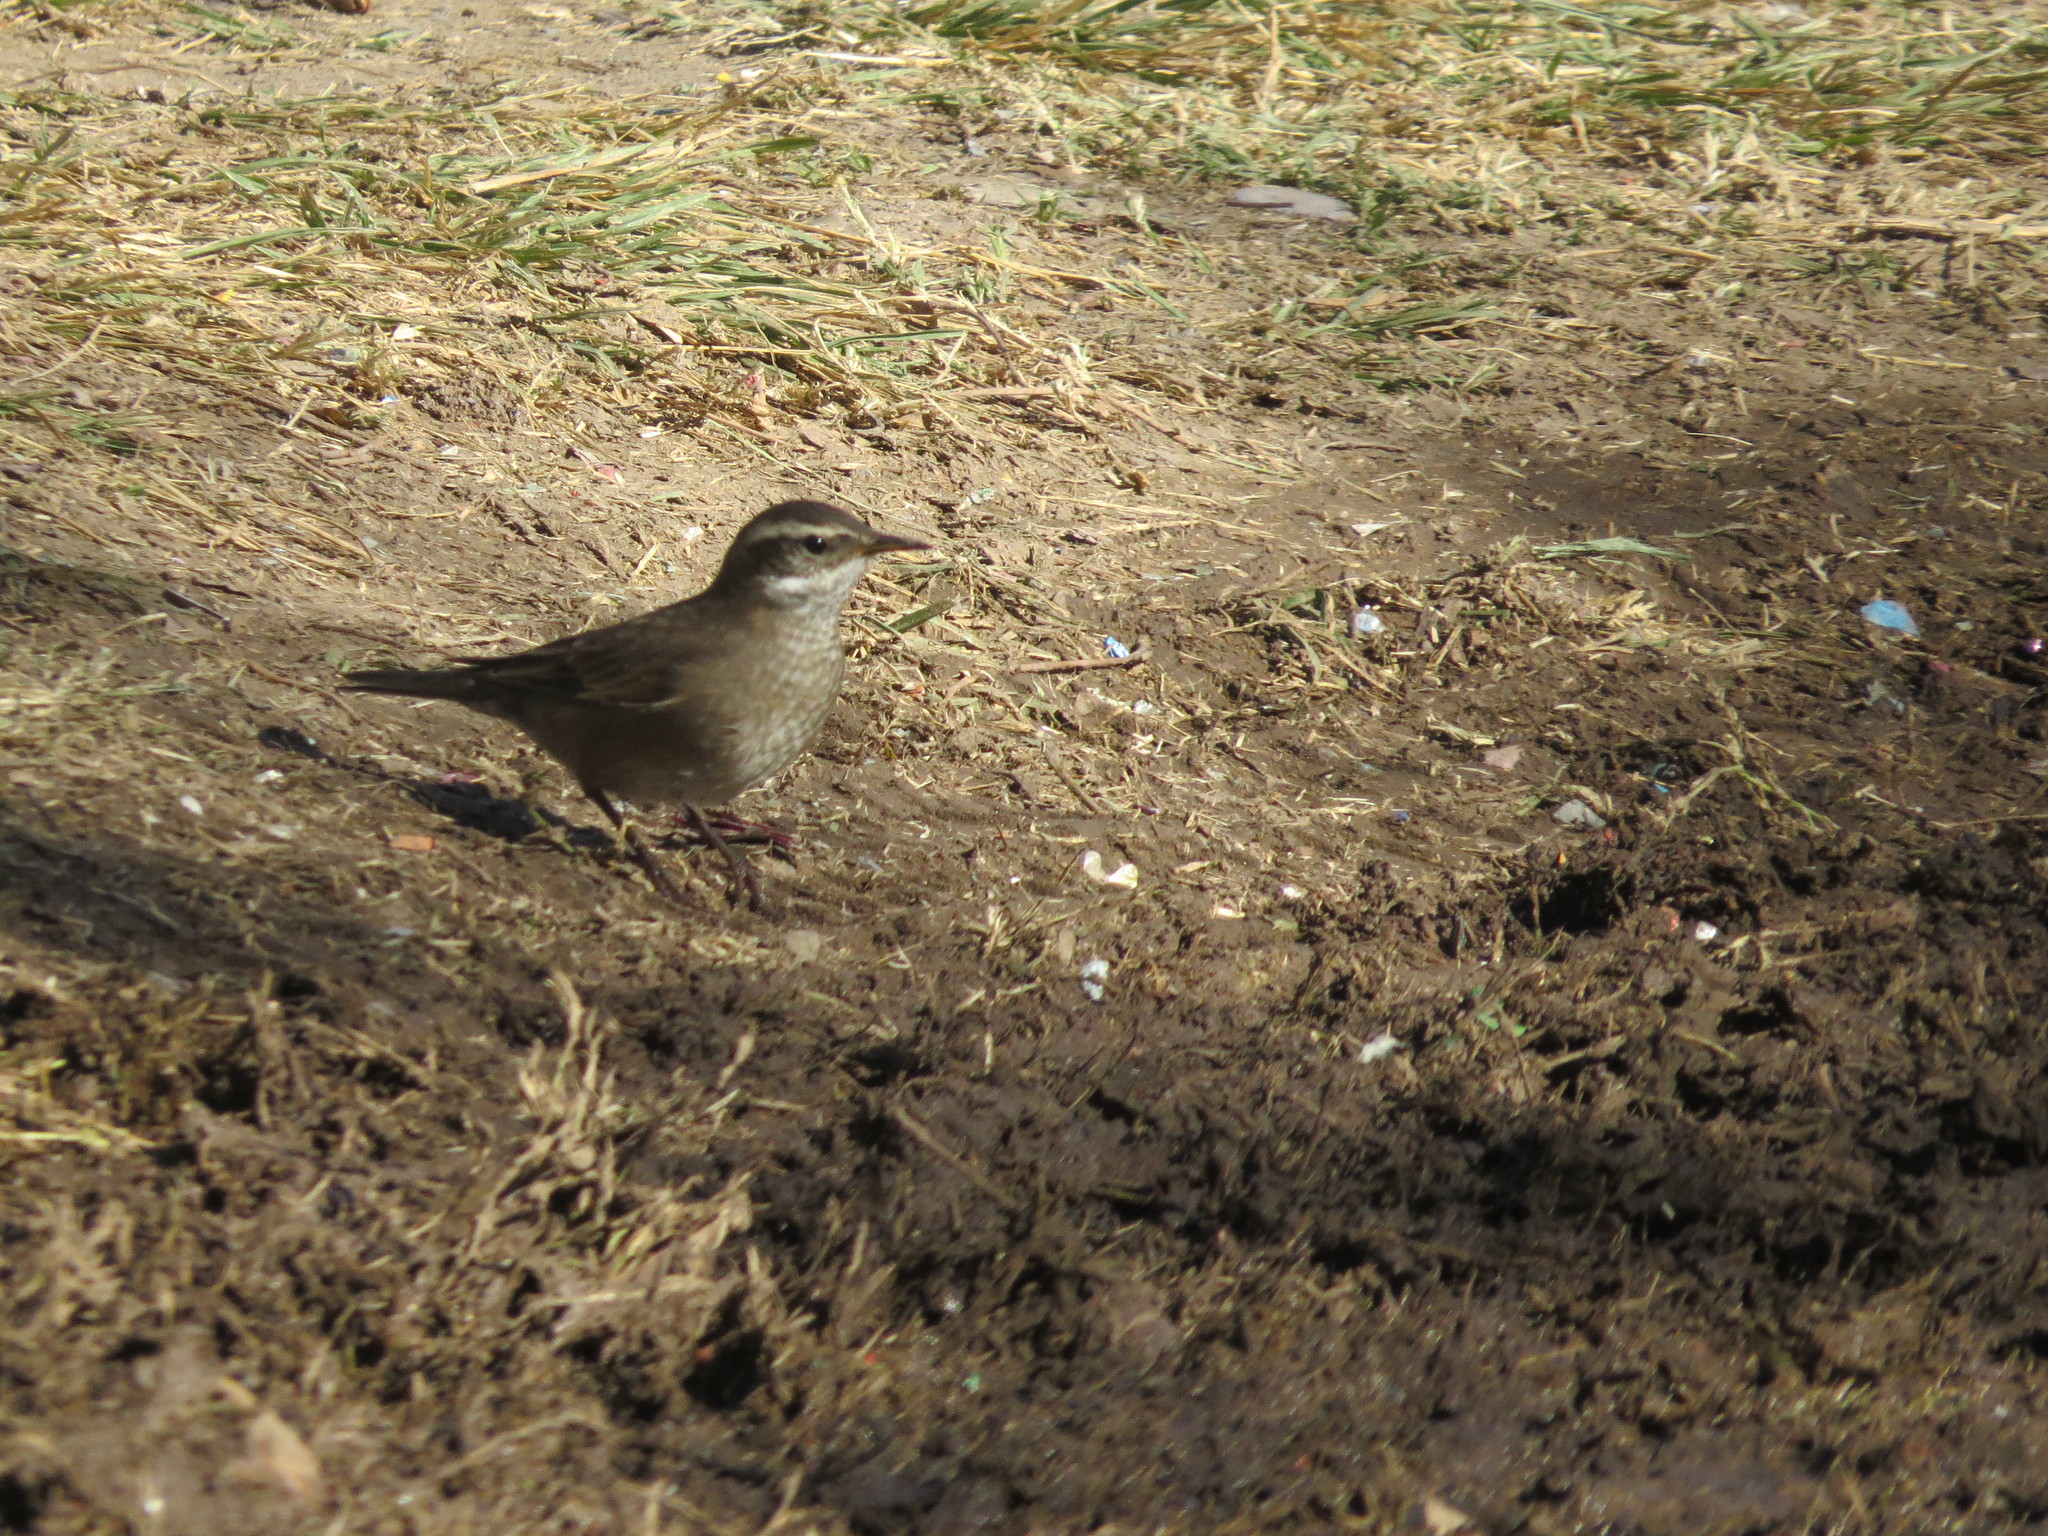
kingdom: Animalia
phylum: Chordata
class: Aves
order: Passeriformes
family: Furnariidae
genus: Cinclodes
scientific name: Cinclodes fuscus
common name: Buff-winged cinclodes
